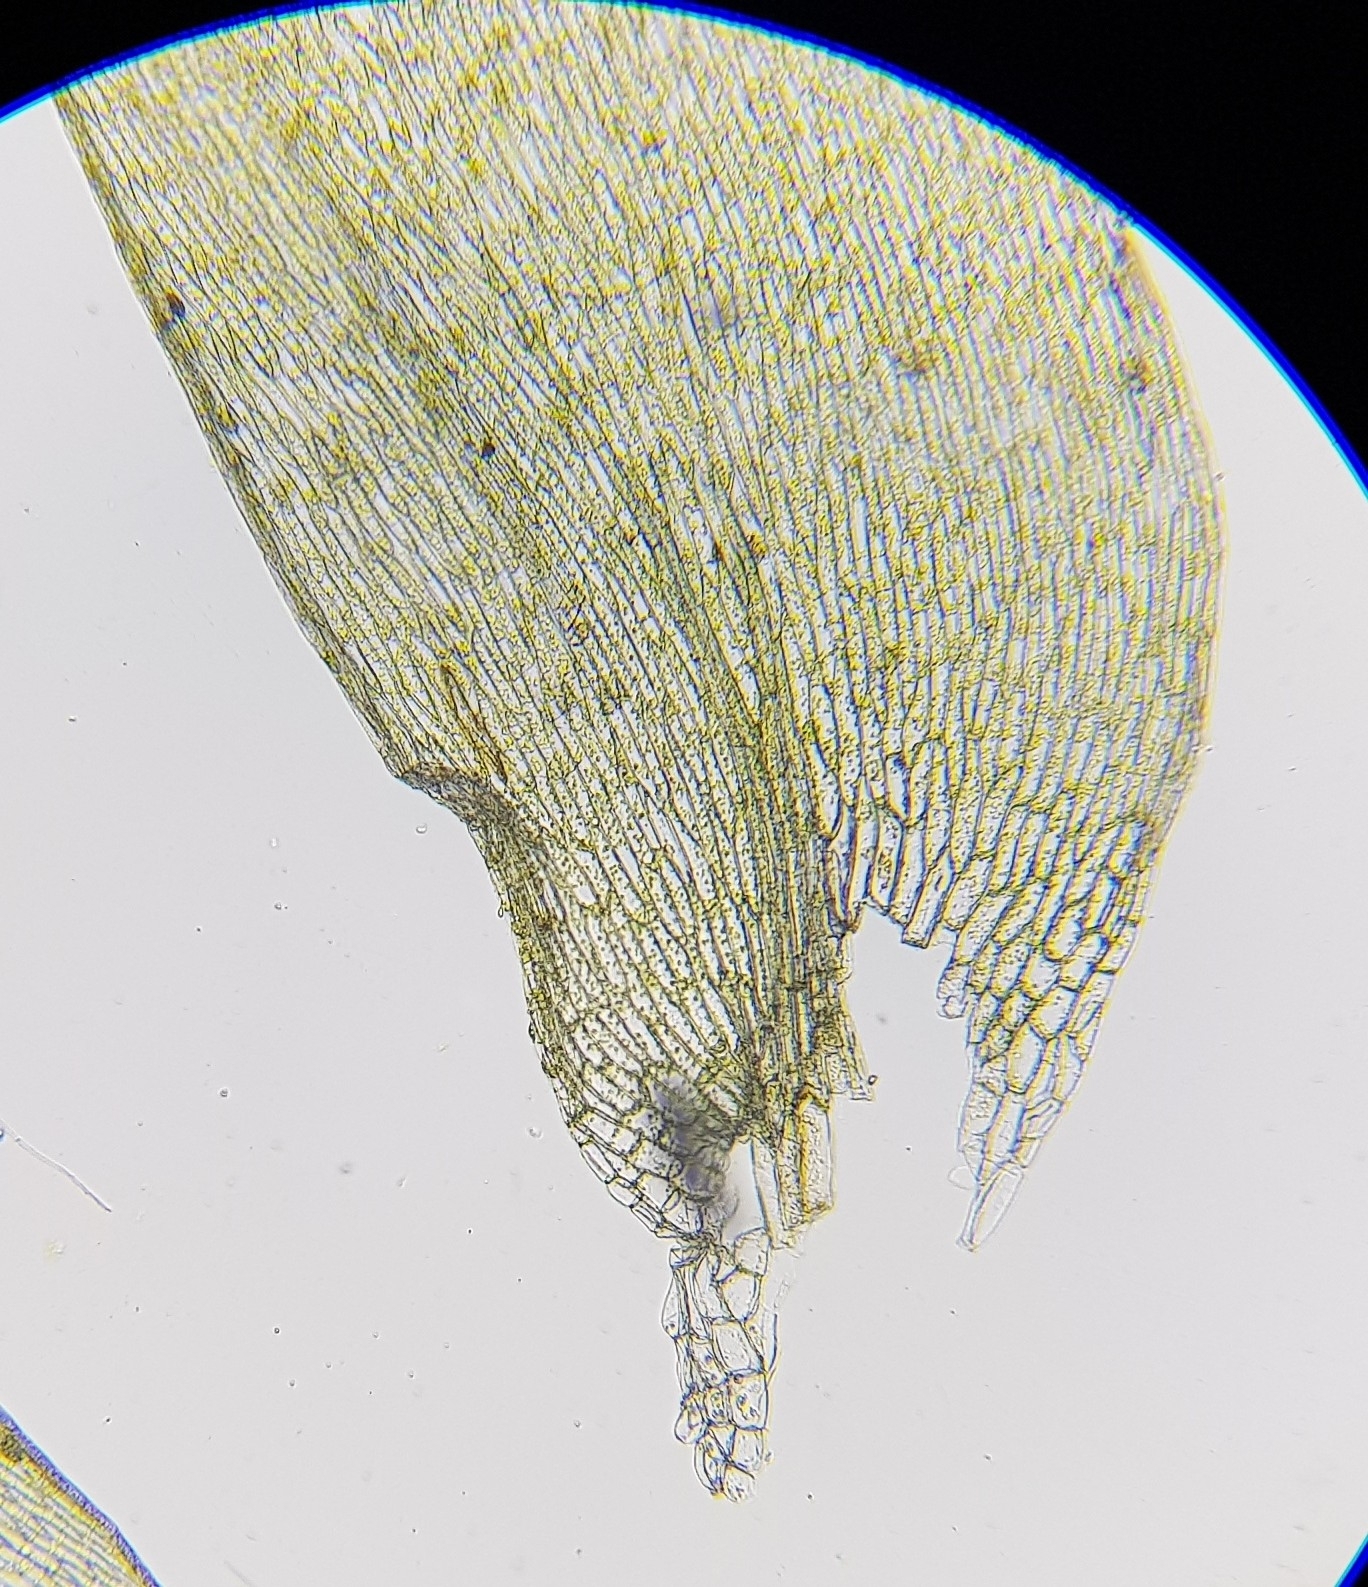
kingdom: Plantae
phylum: Bryophyta
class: Bryopsida
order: Hypnales
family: Plagiotheciaceae
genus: Plagiothecium
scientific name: Plagiothecium denticulatum
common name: Dented silk moss
